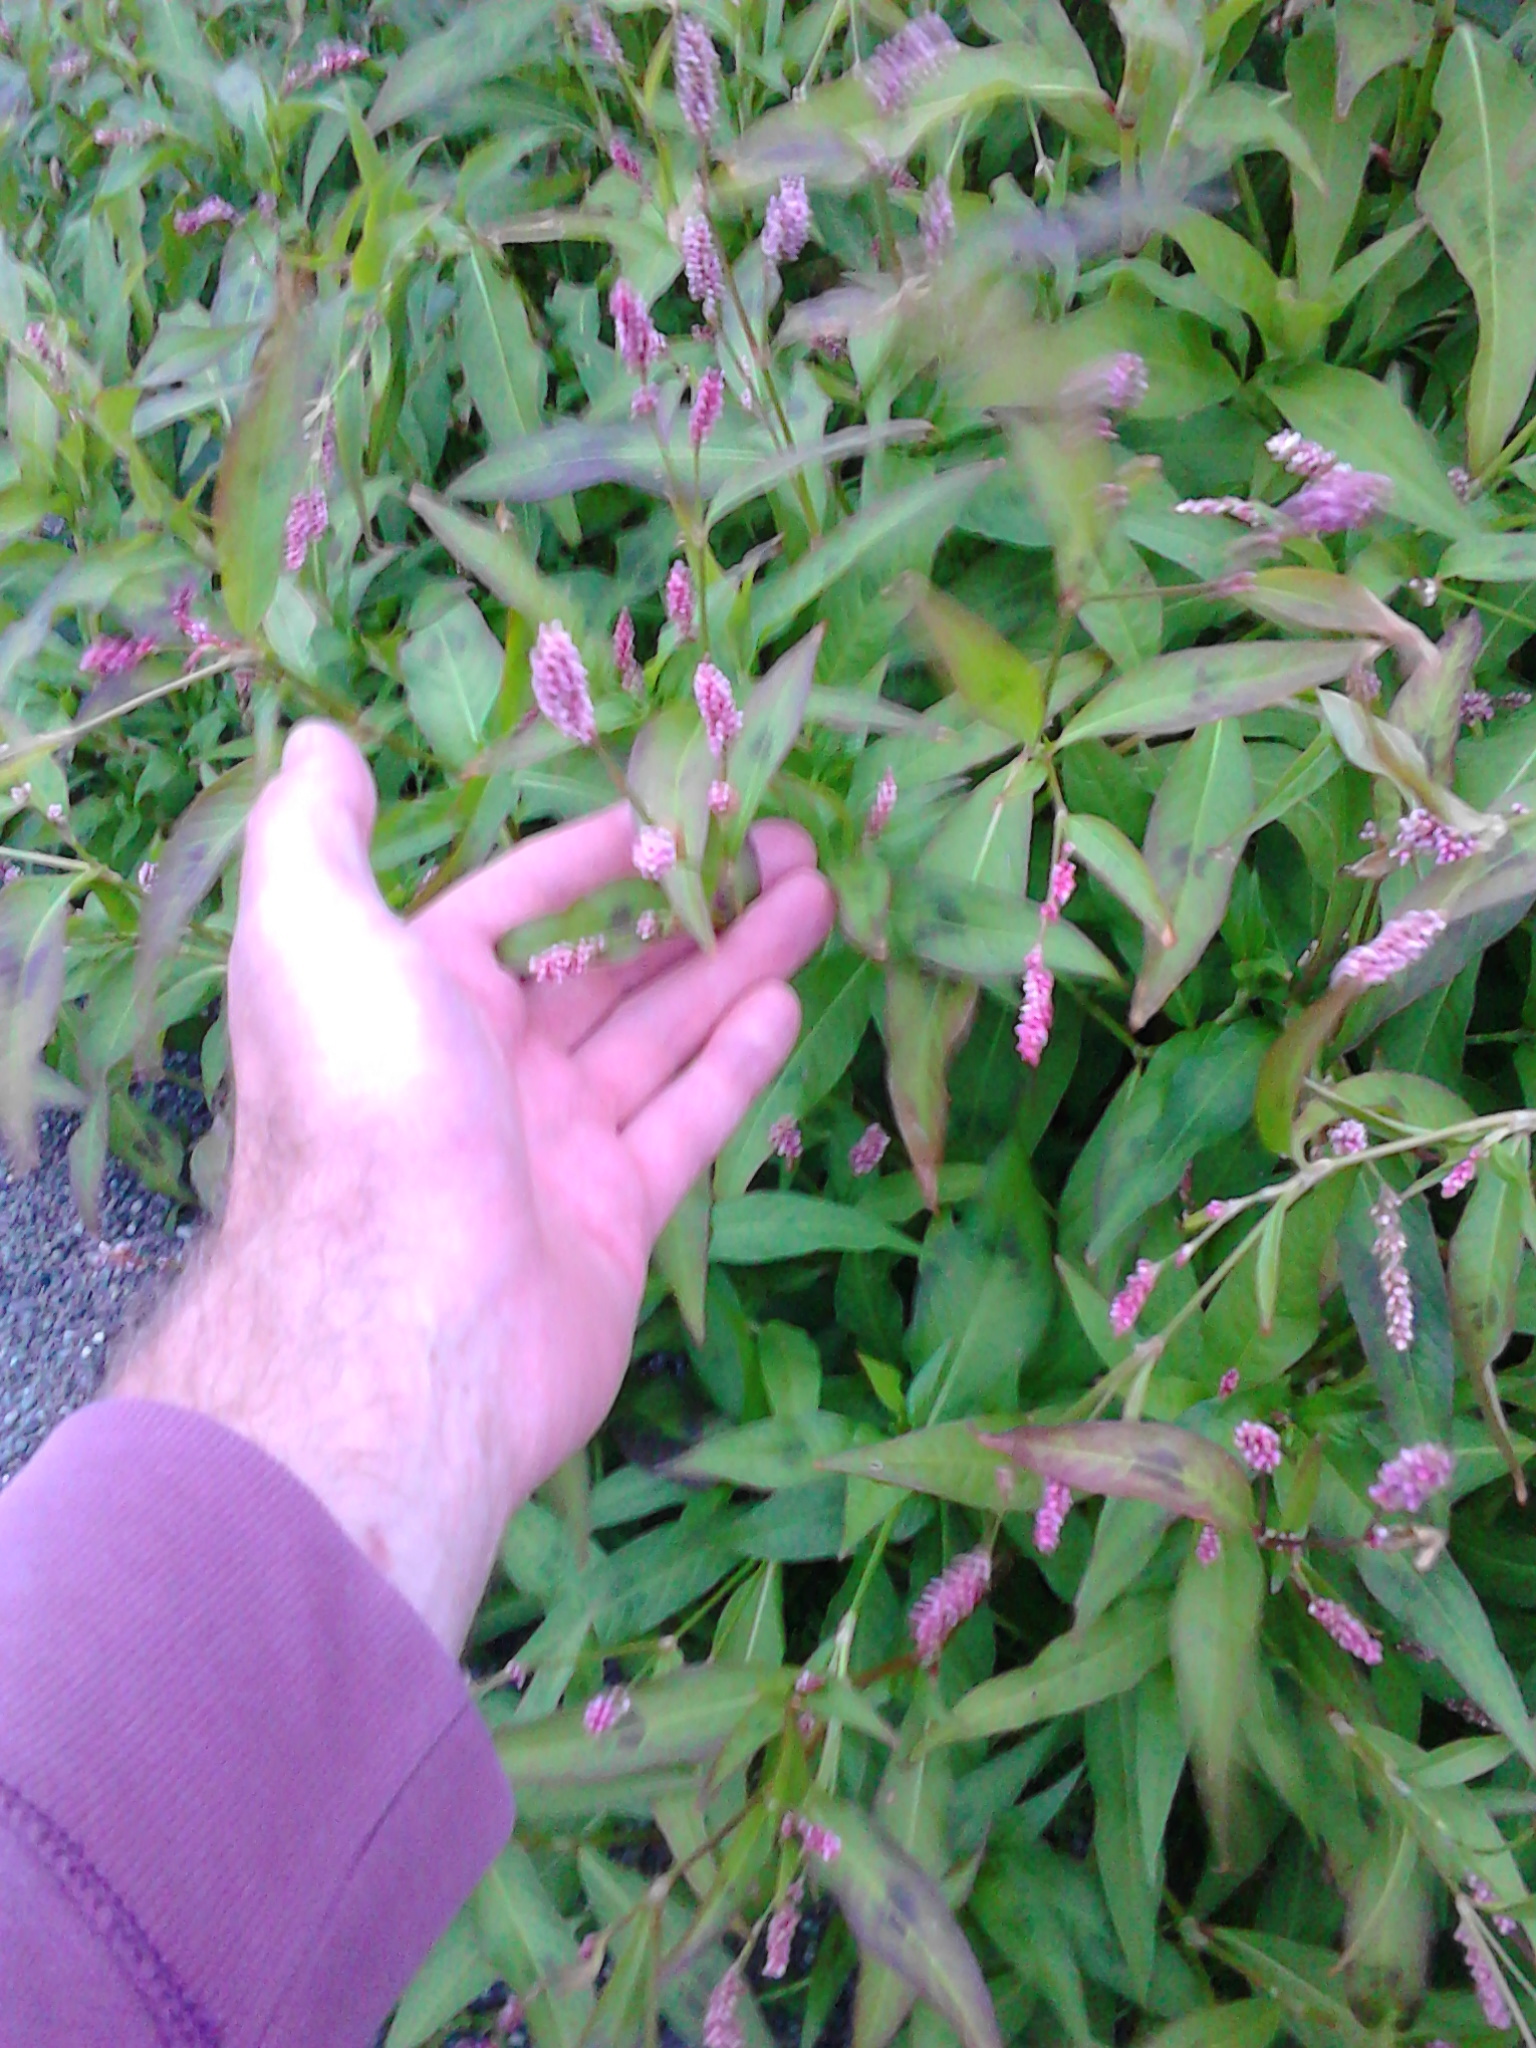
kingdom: Plantae
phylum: Tracheophyta
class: Magnoliopsida
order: Caryophyllales
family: Polygonaceae
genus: Persicaria
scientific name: Persicaria maculosa
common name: Redshank
